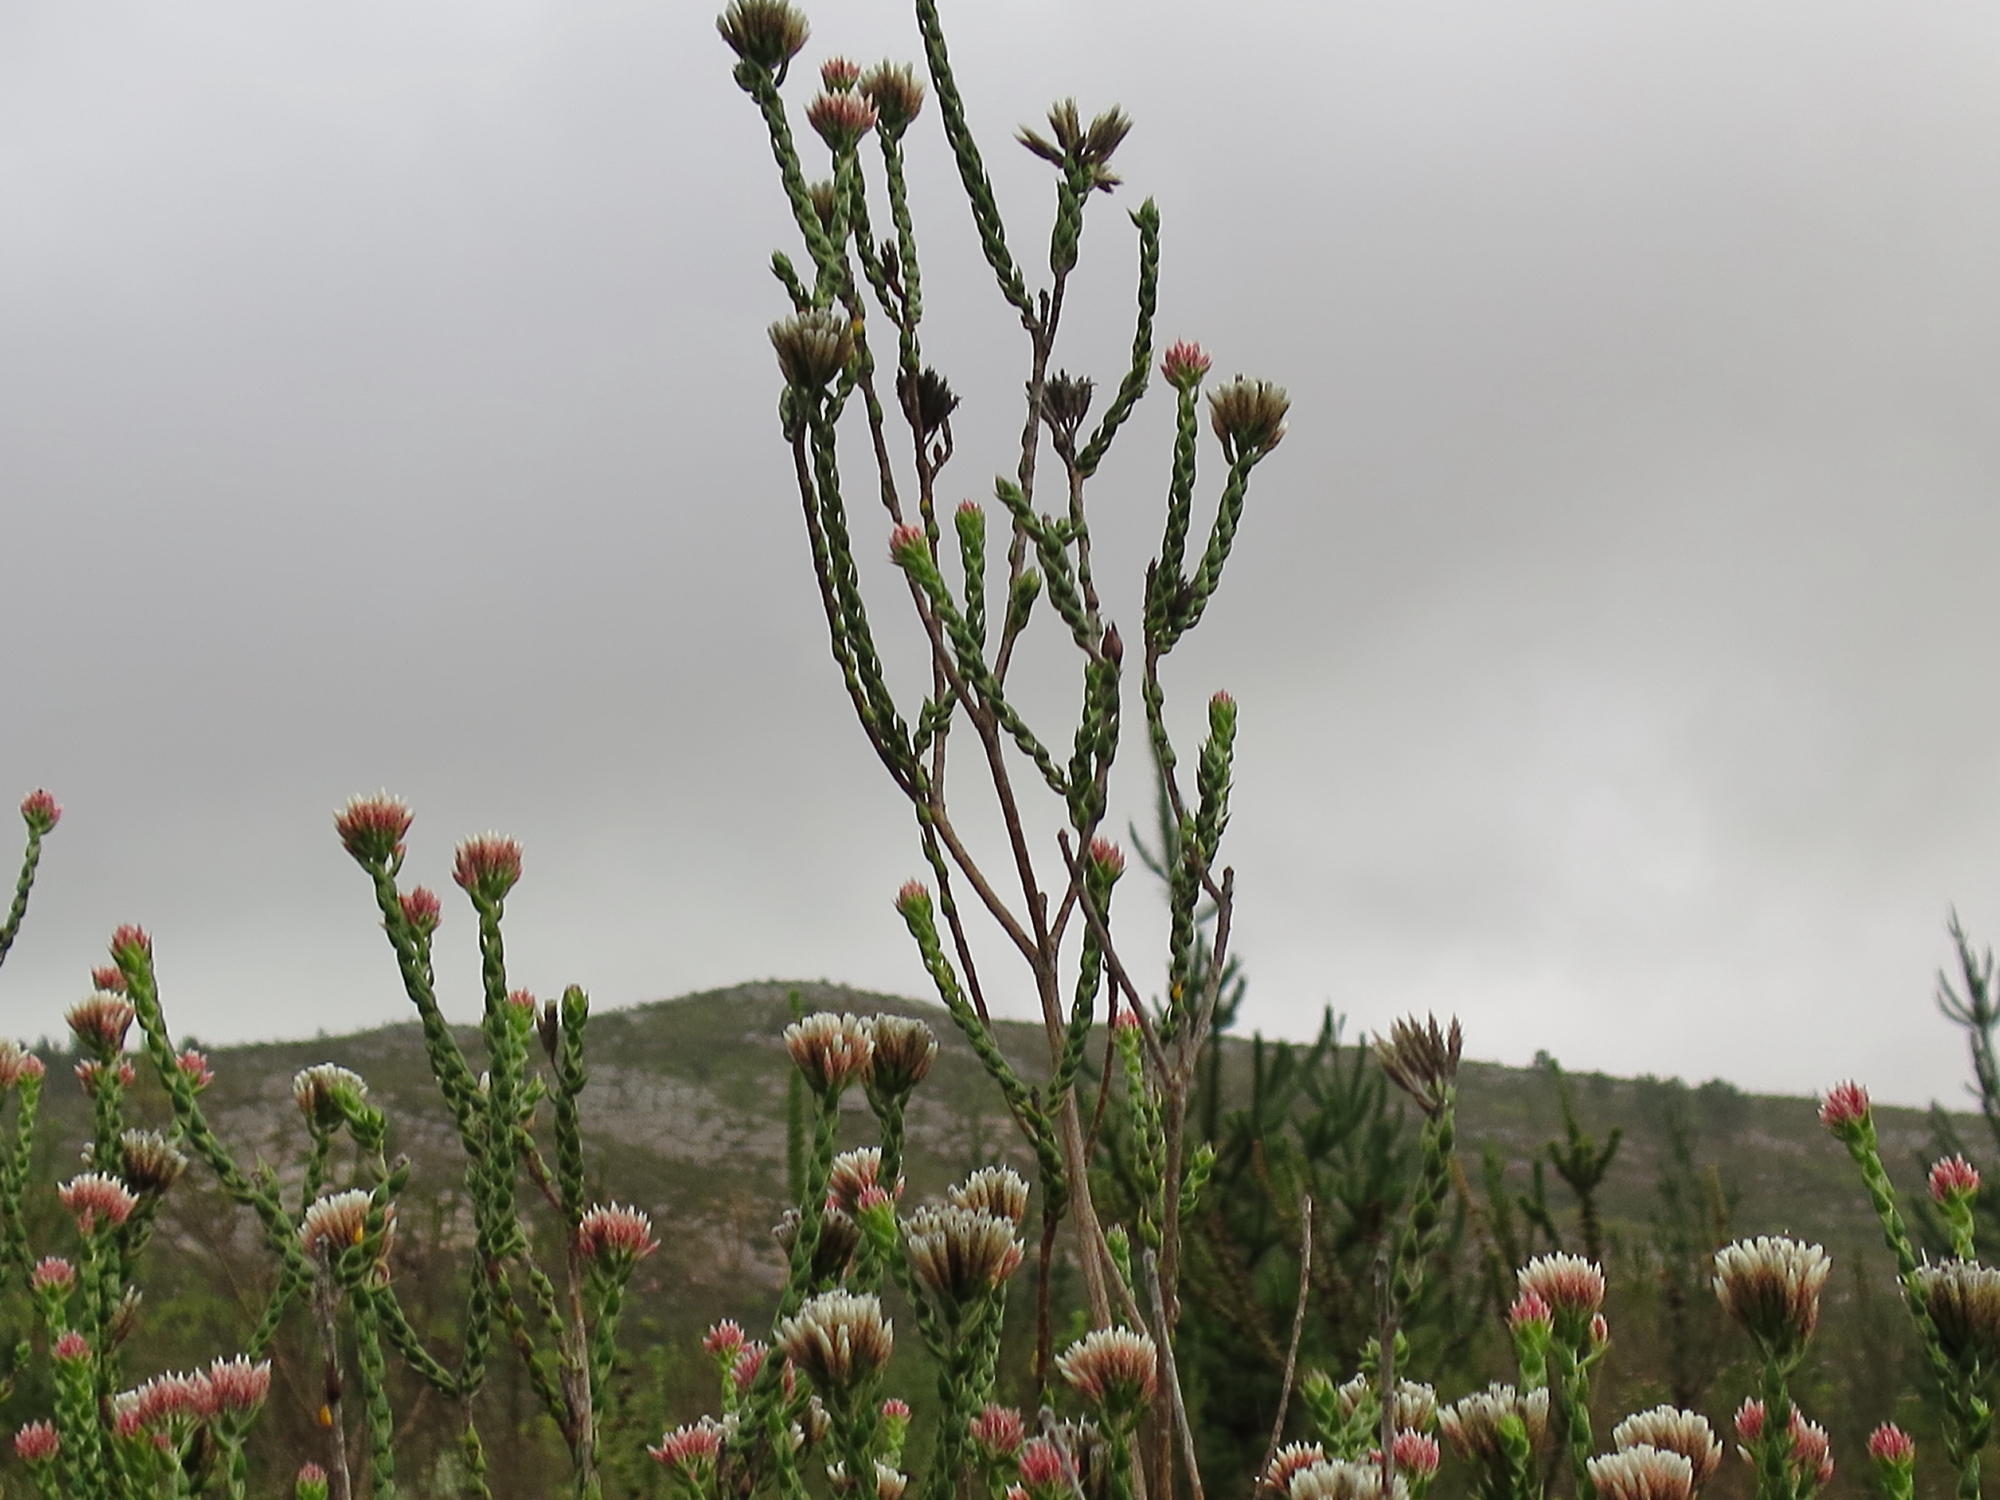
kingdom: Plantae
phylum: Tracheophyta
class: Magnoliopsida
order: Asterales
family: Asteraceae
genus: Metalasia
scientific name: Metalasia pulcherrima
